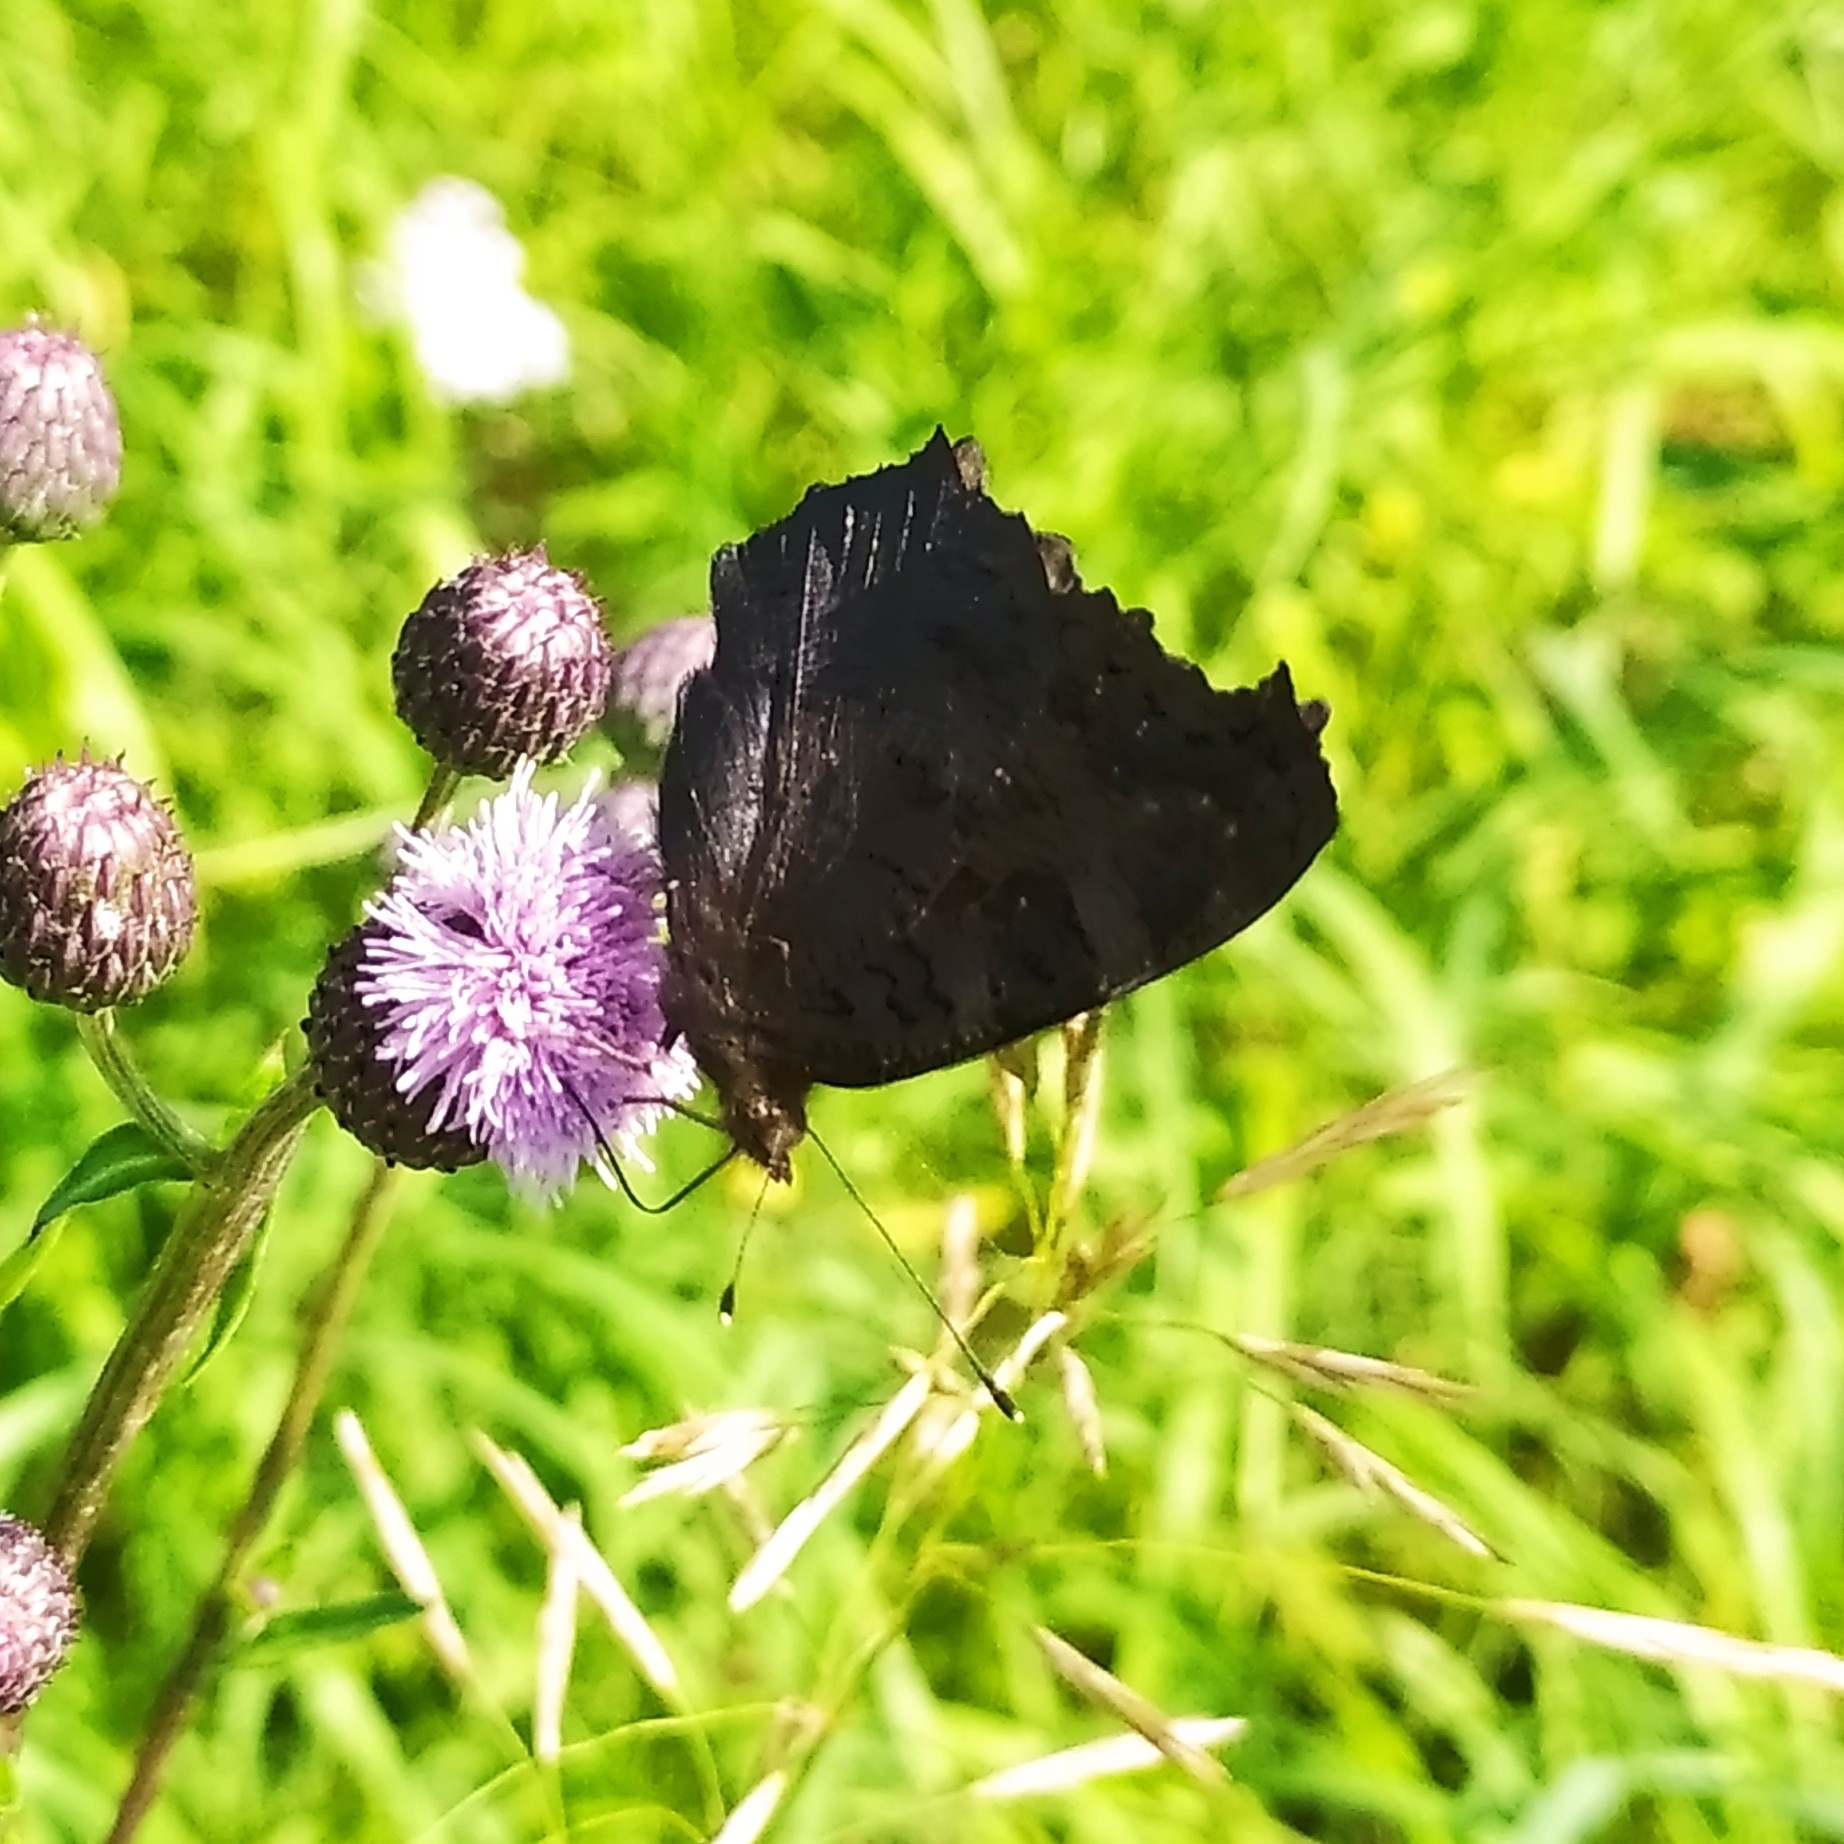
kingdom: Animalia
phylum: Arthropoda
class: Insecta
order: Lepidoptera
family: Nymphalidae
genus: Aglais
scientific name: Aglais io
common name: Peacock
